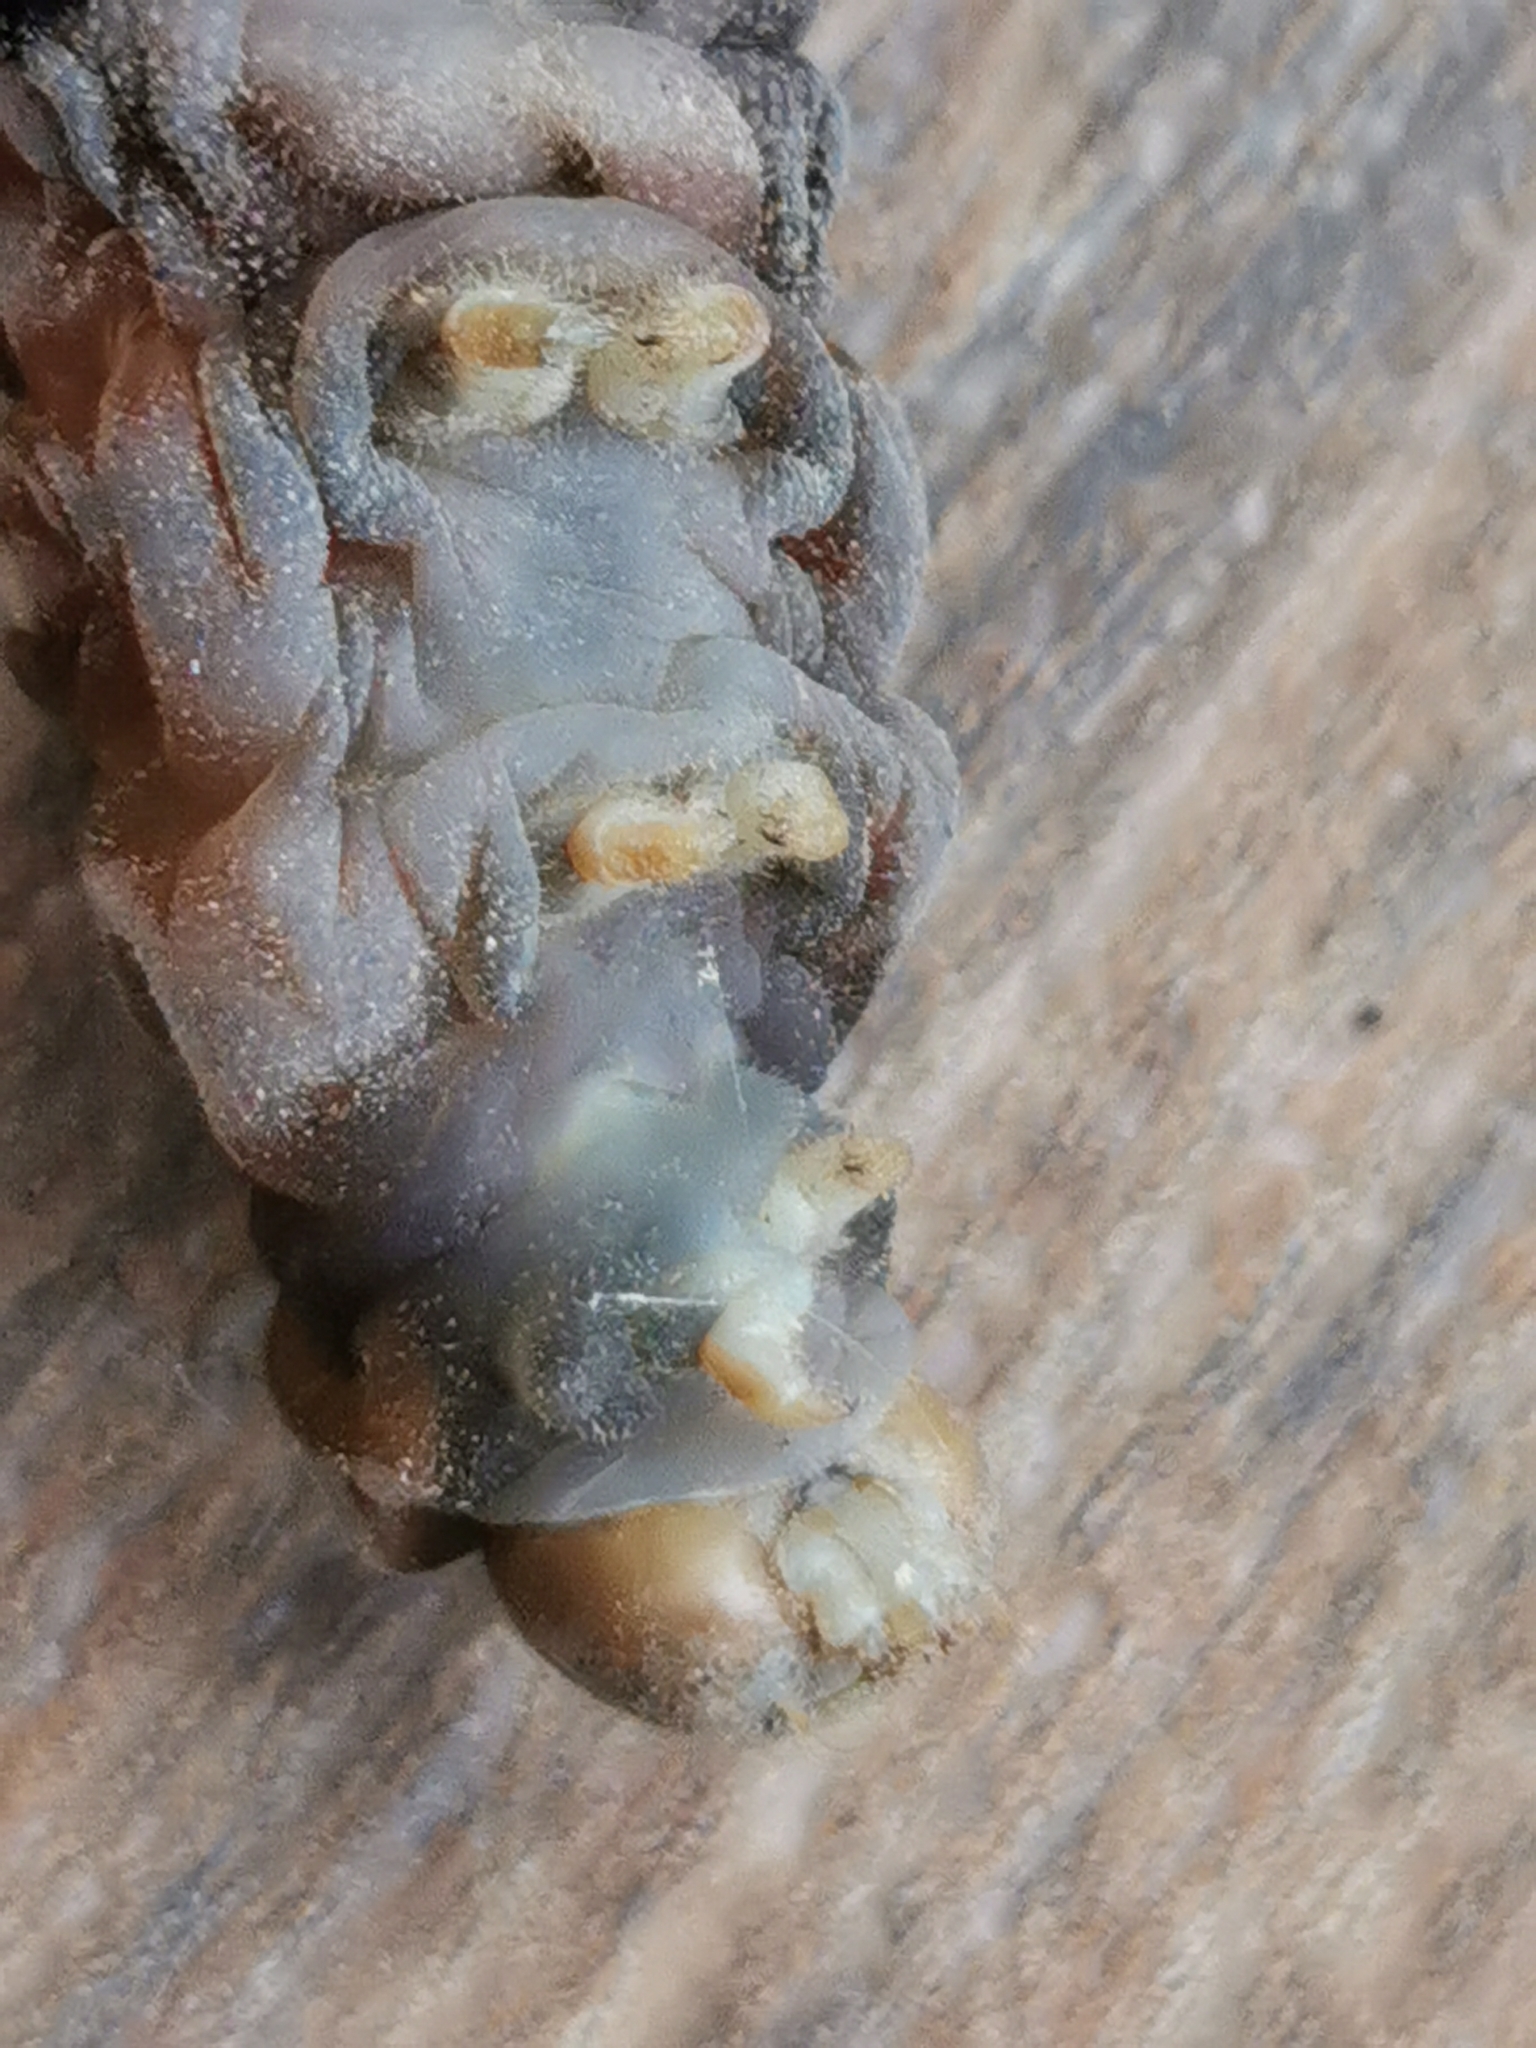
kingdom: Animalia
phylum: Arthropoda
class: Insecta
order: Lepidoptera
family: Papilionidae
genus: Papilio
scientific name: Papilio multicaudata
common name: Two-tailed tiger swallowtail
